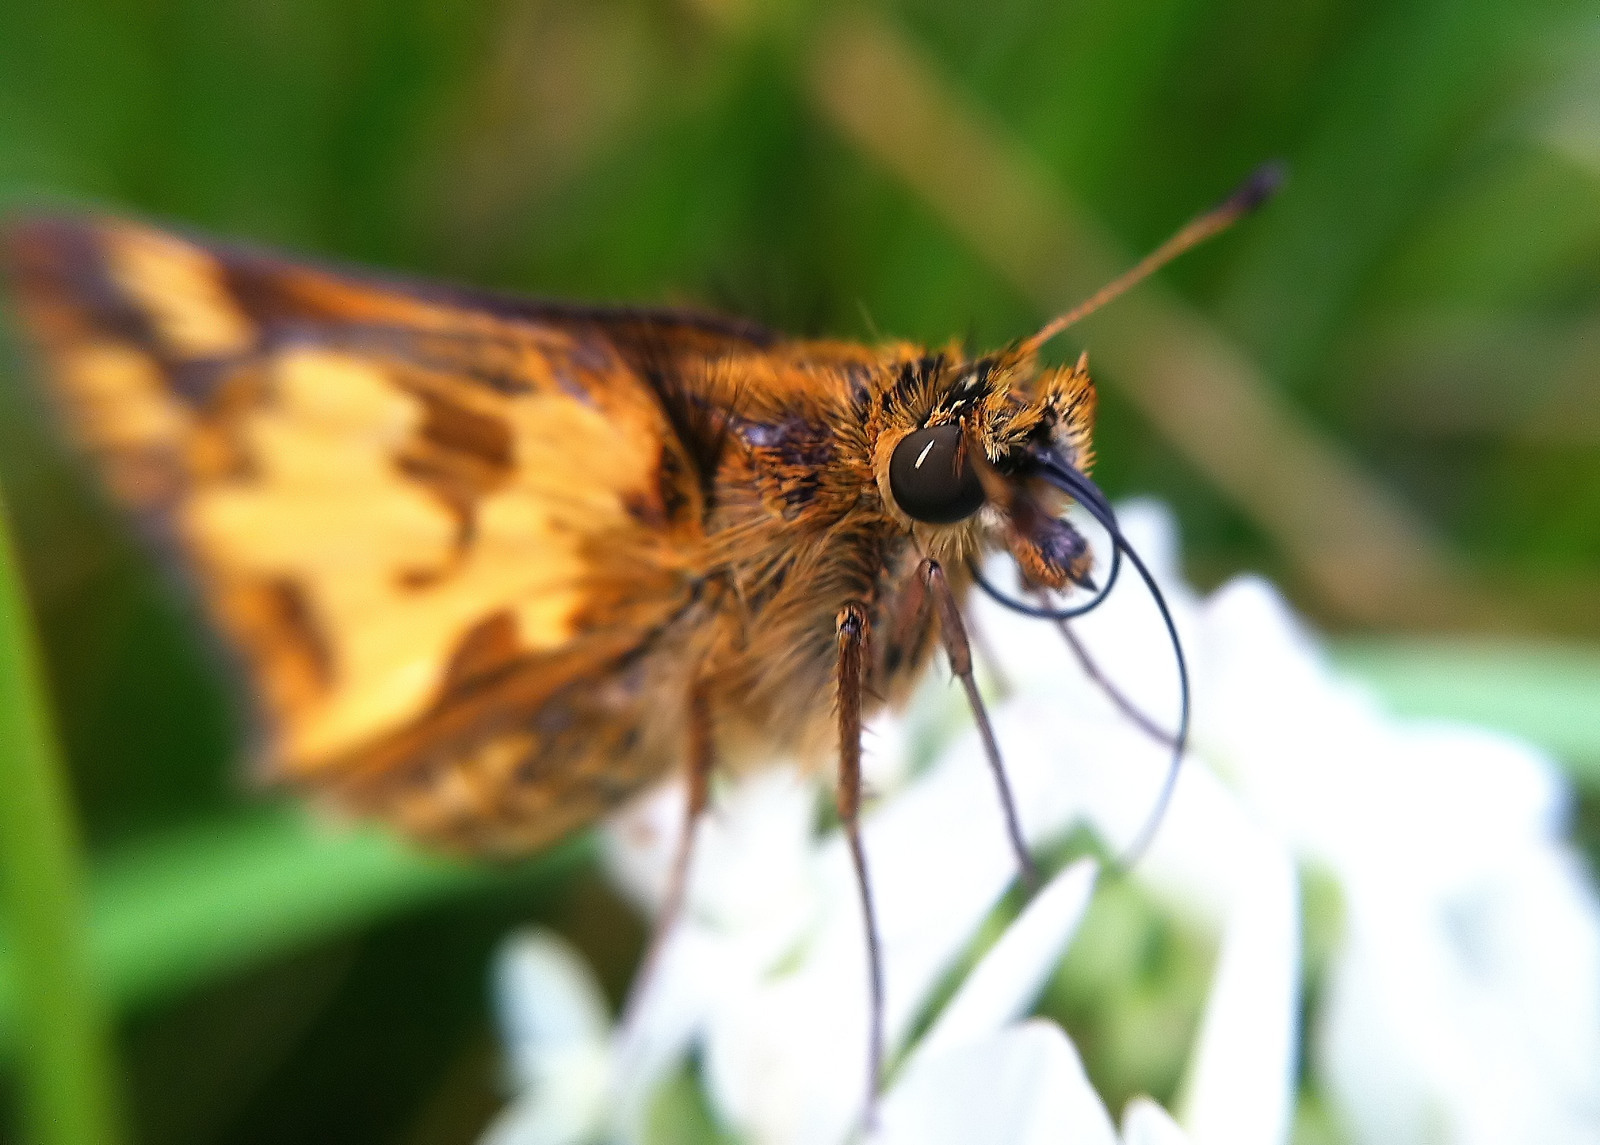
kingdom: Animalia
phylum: Arthropoda
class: Insecta
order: Lepidoptera
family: Hesperiidae
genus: Polites
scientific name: Polites coras
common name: Peck's skipper
